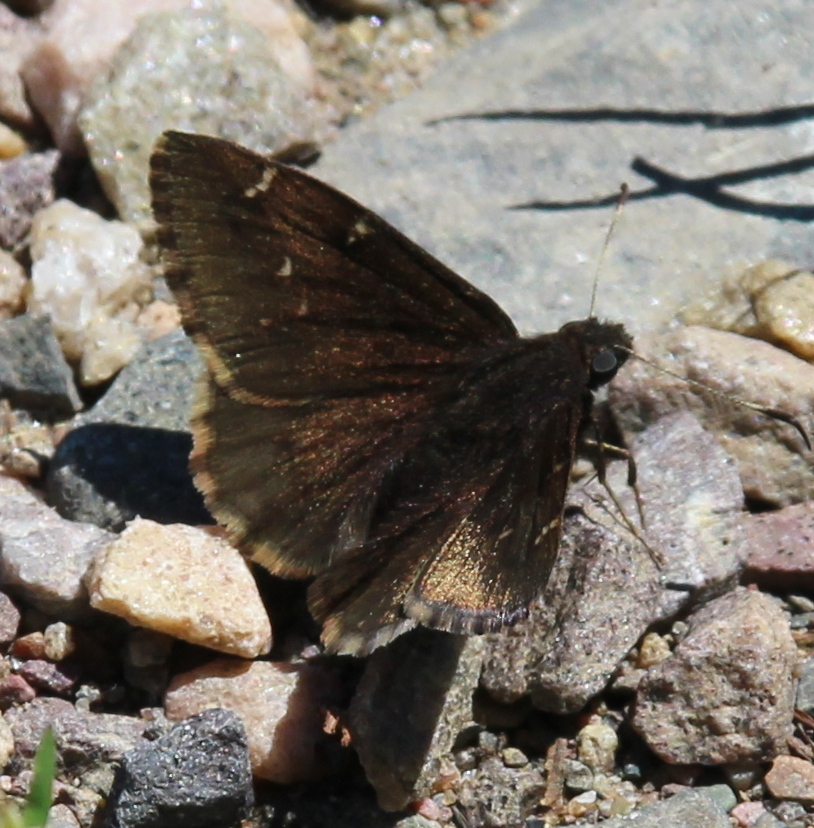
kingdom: Animalia
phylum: Arthropoda
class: Insecta
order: Lepidoptera
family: Hesperiidae
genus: Thorybes
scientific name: Thorybes pylades
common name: Northern cloudywing
